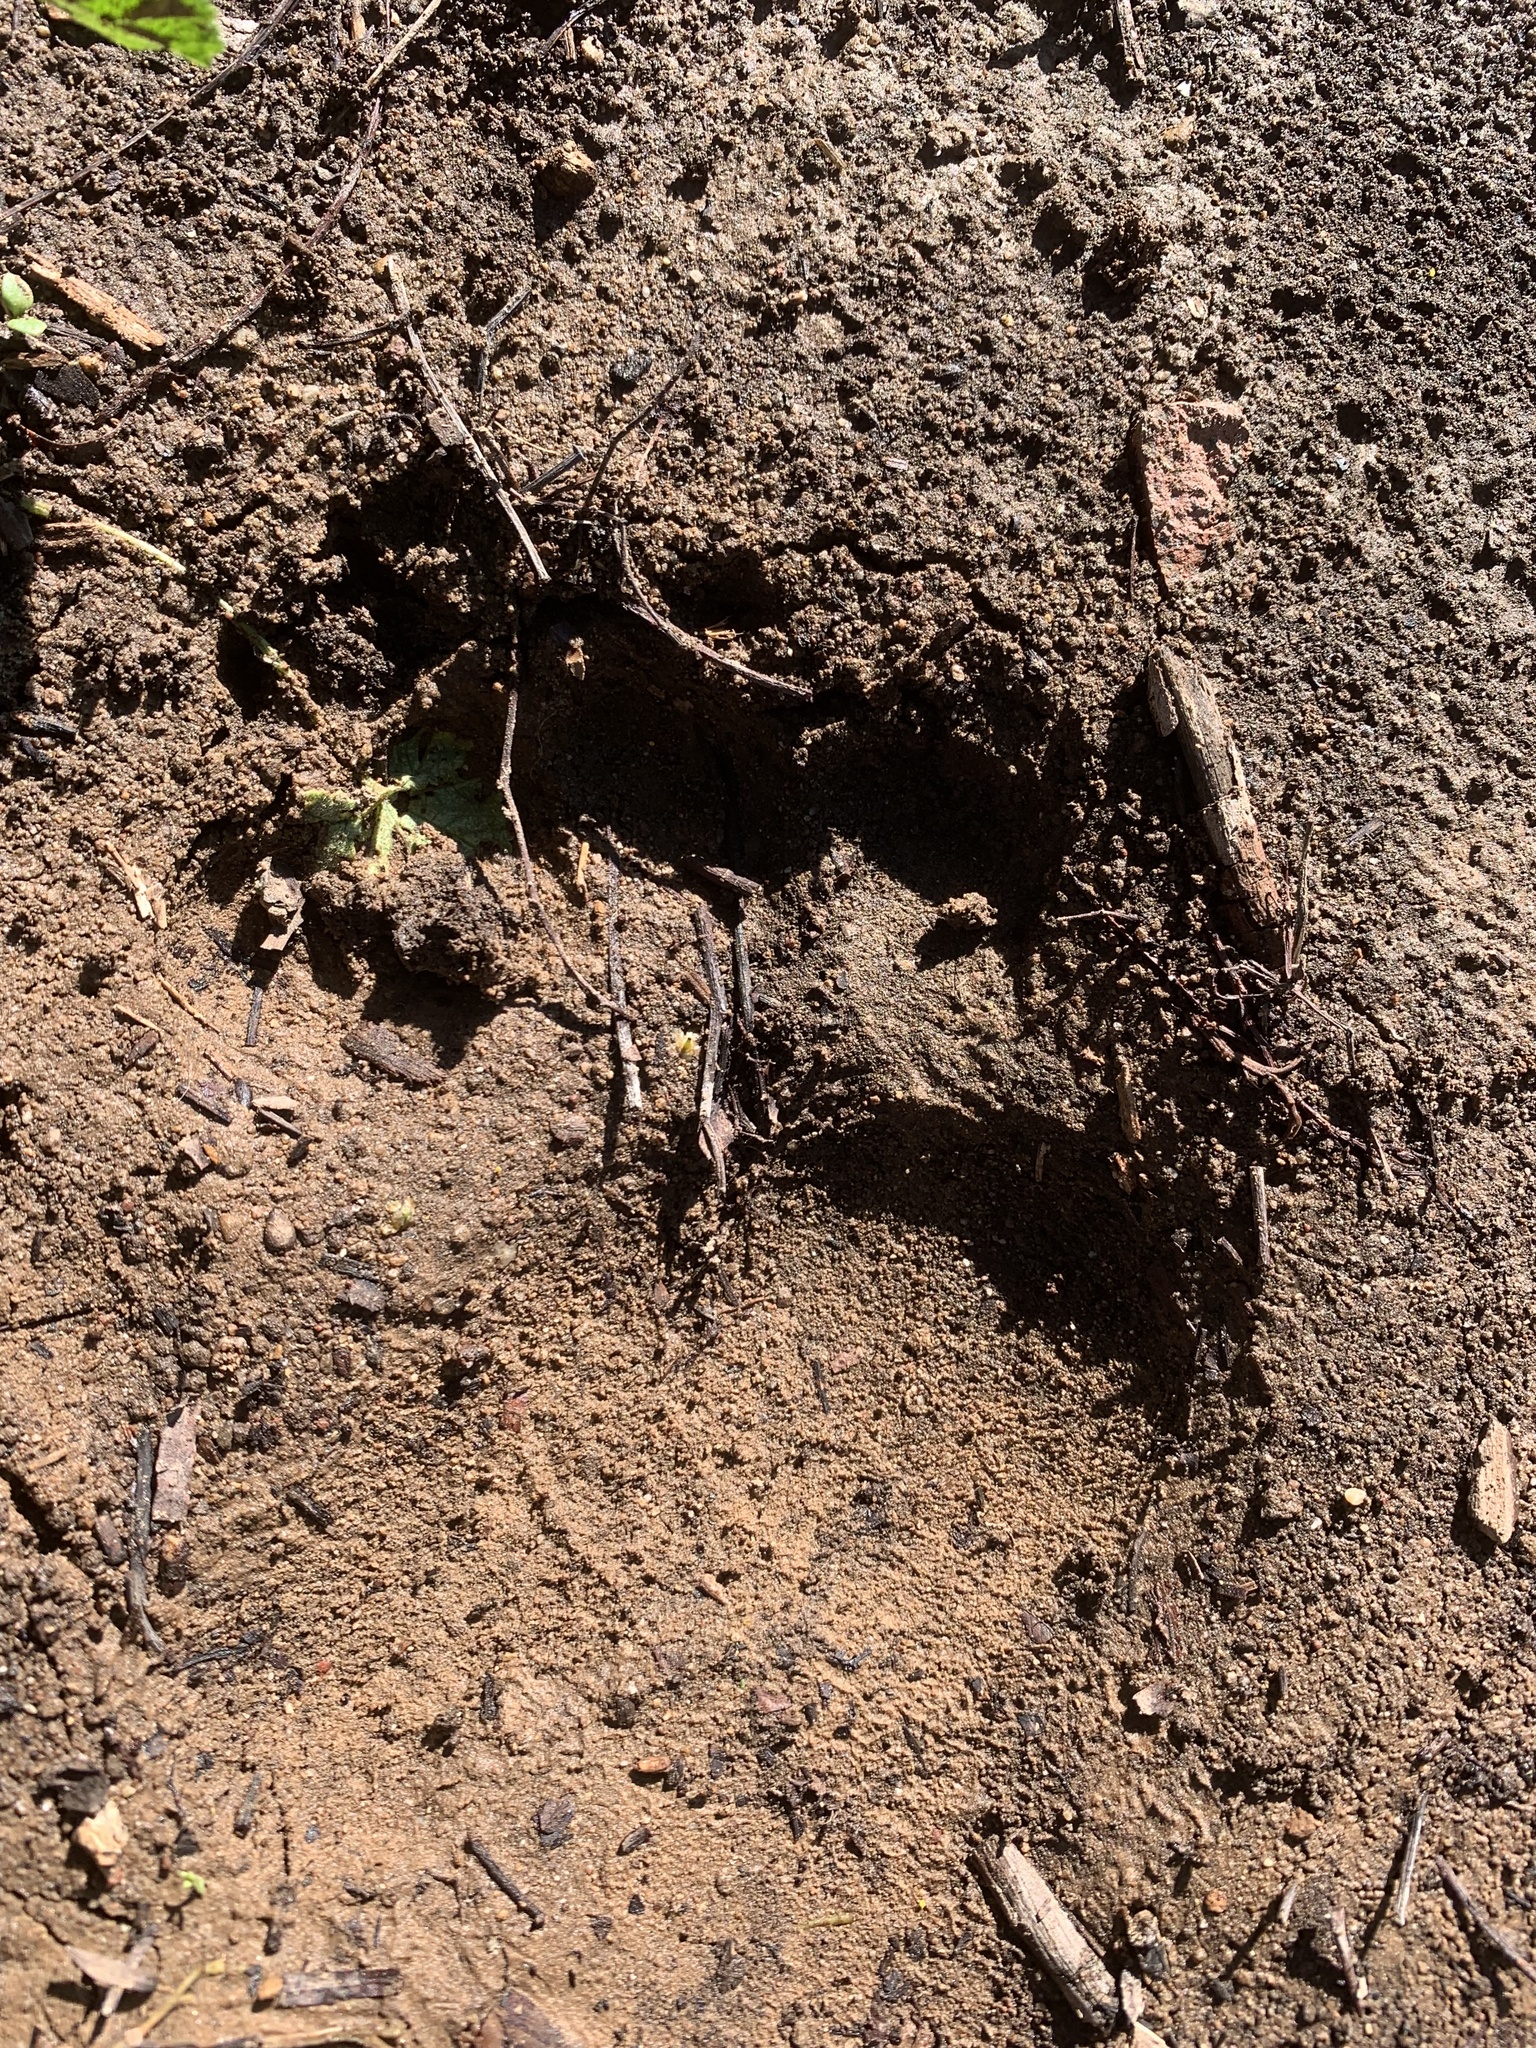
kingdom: Animalia
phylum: Chordata
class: Mammalia
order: Carnivora
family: Ursidae
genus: Ursus
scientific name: Ursus americanus
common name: American black bear
